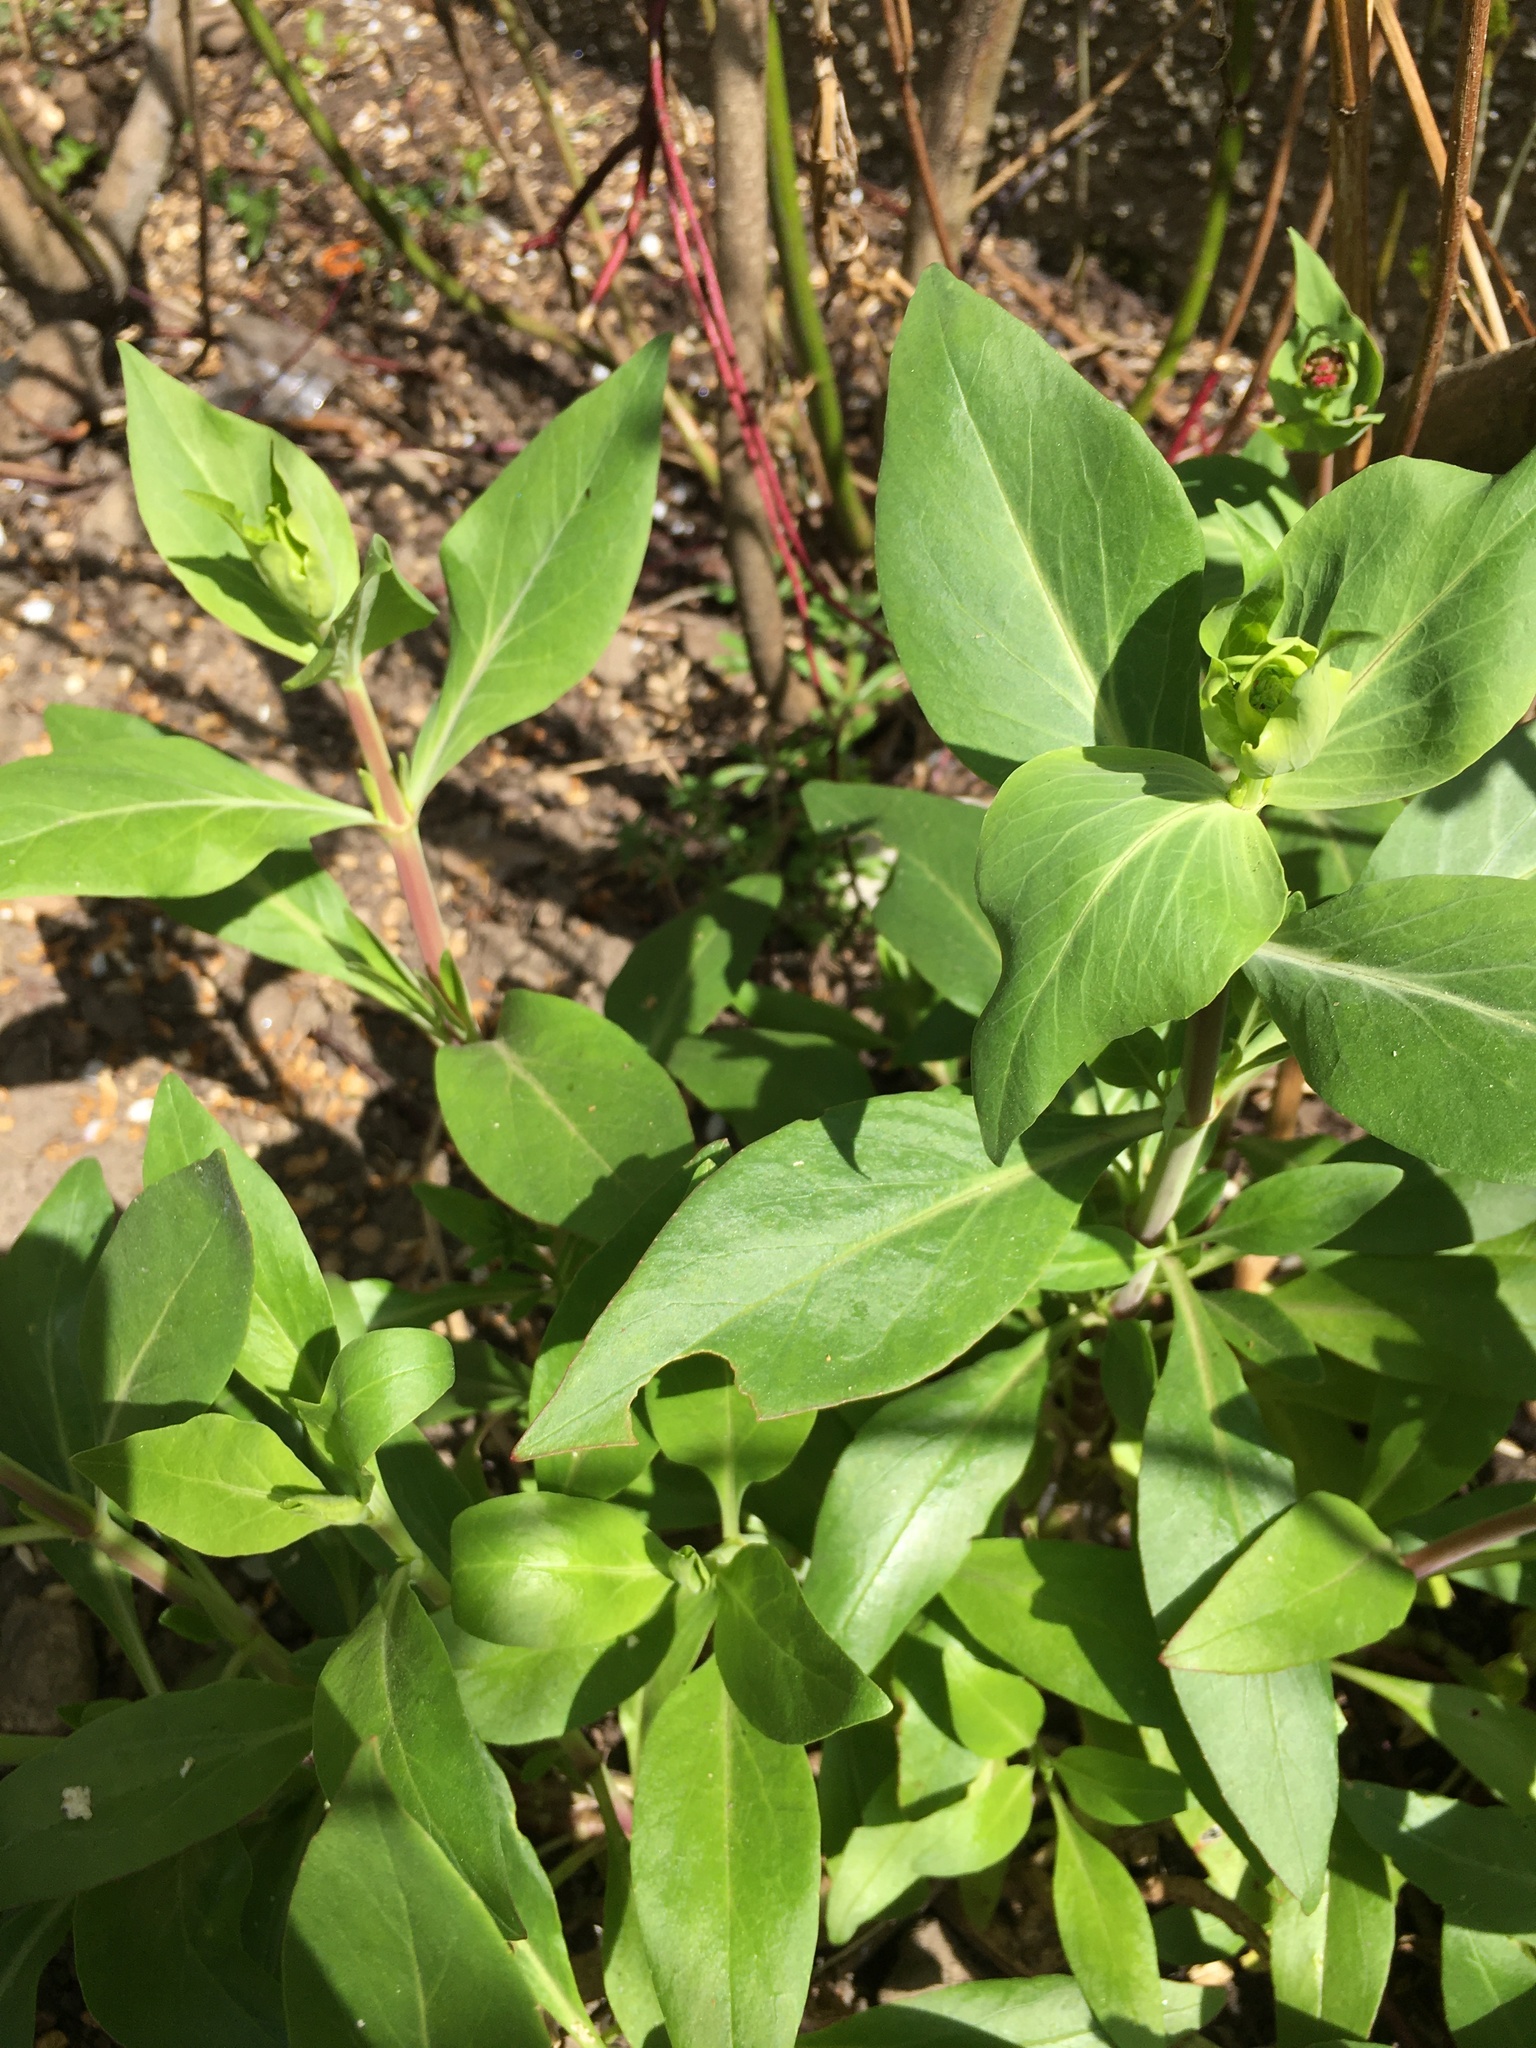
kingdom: Plantae
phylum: Tracheophyta
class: Magnoliopsida
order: Dipsacales
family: Caprifoliaceae
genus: Centranthus
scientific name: Centranthus ruber
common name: Red valerian
